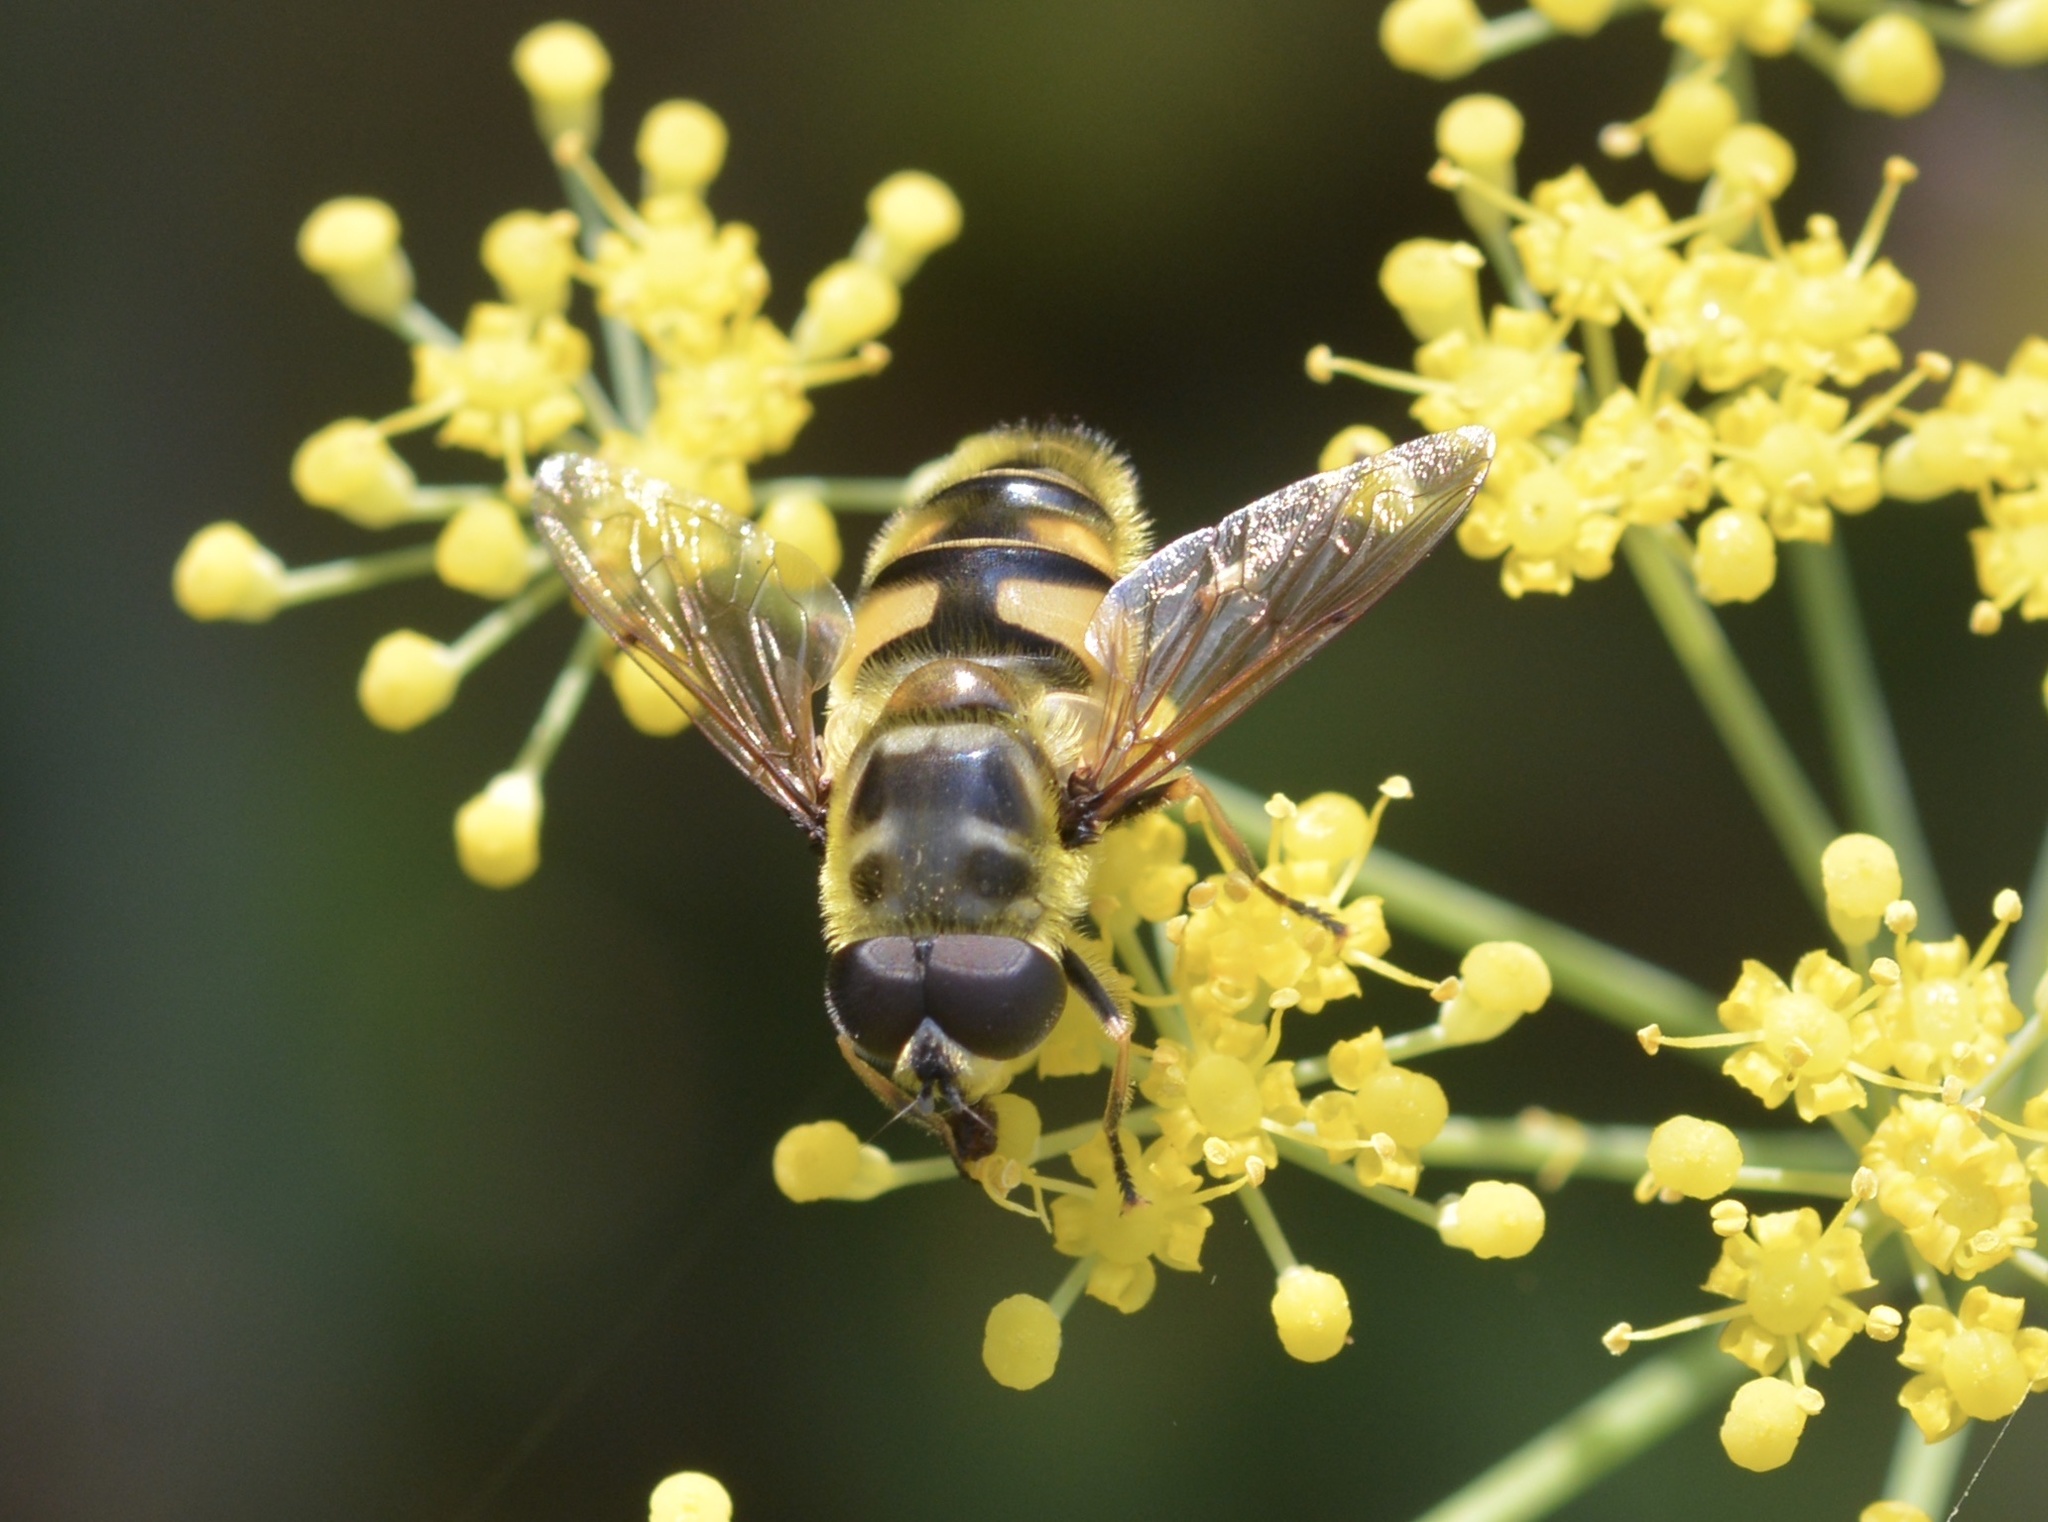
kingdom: Animalia
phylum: Arthropoda
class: Insecta
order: Diptera
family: Syrphidae
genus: Myathropa
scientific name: Myathropa florea
